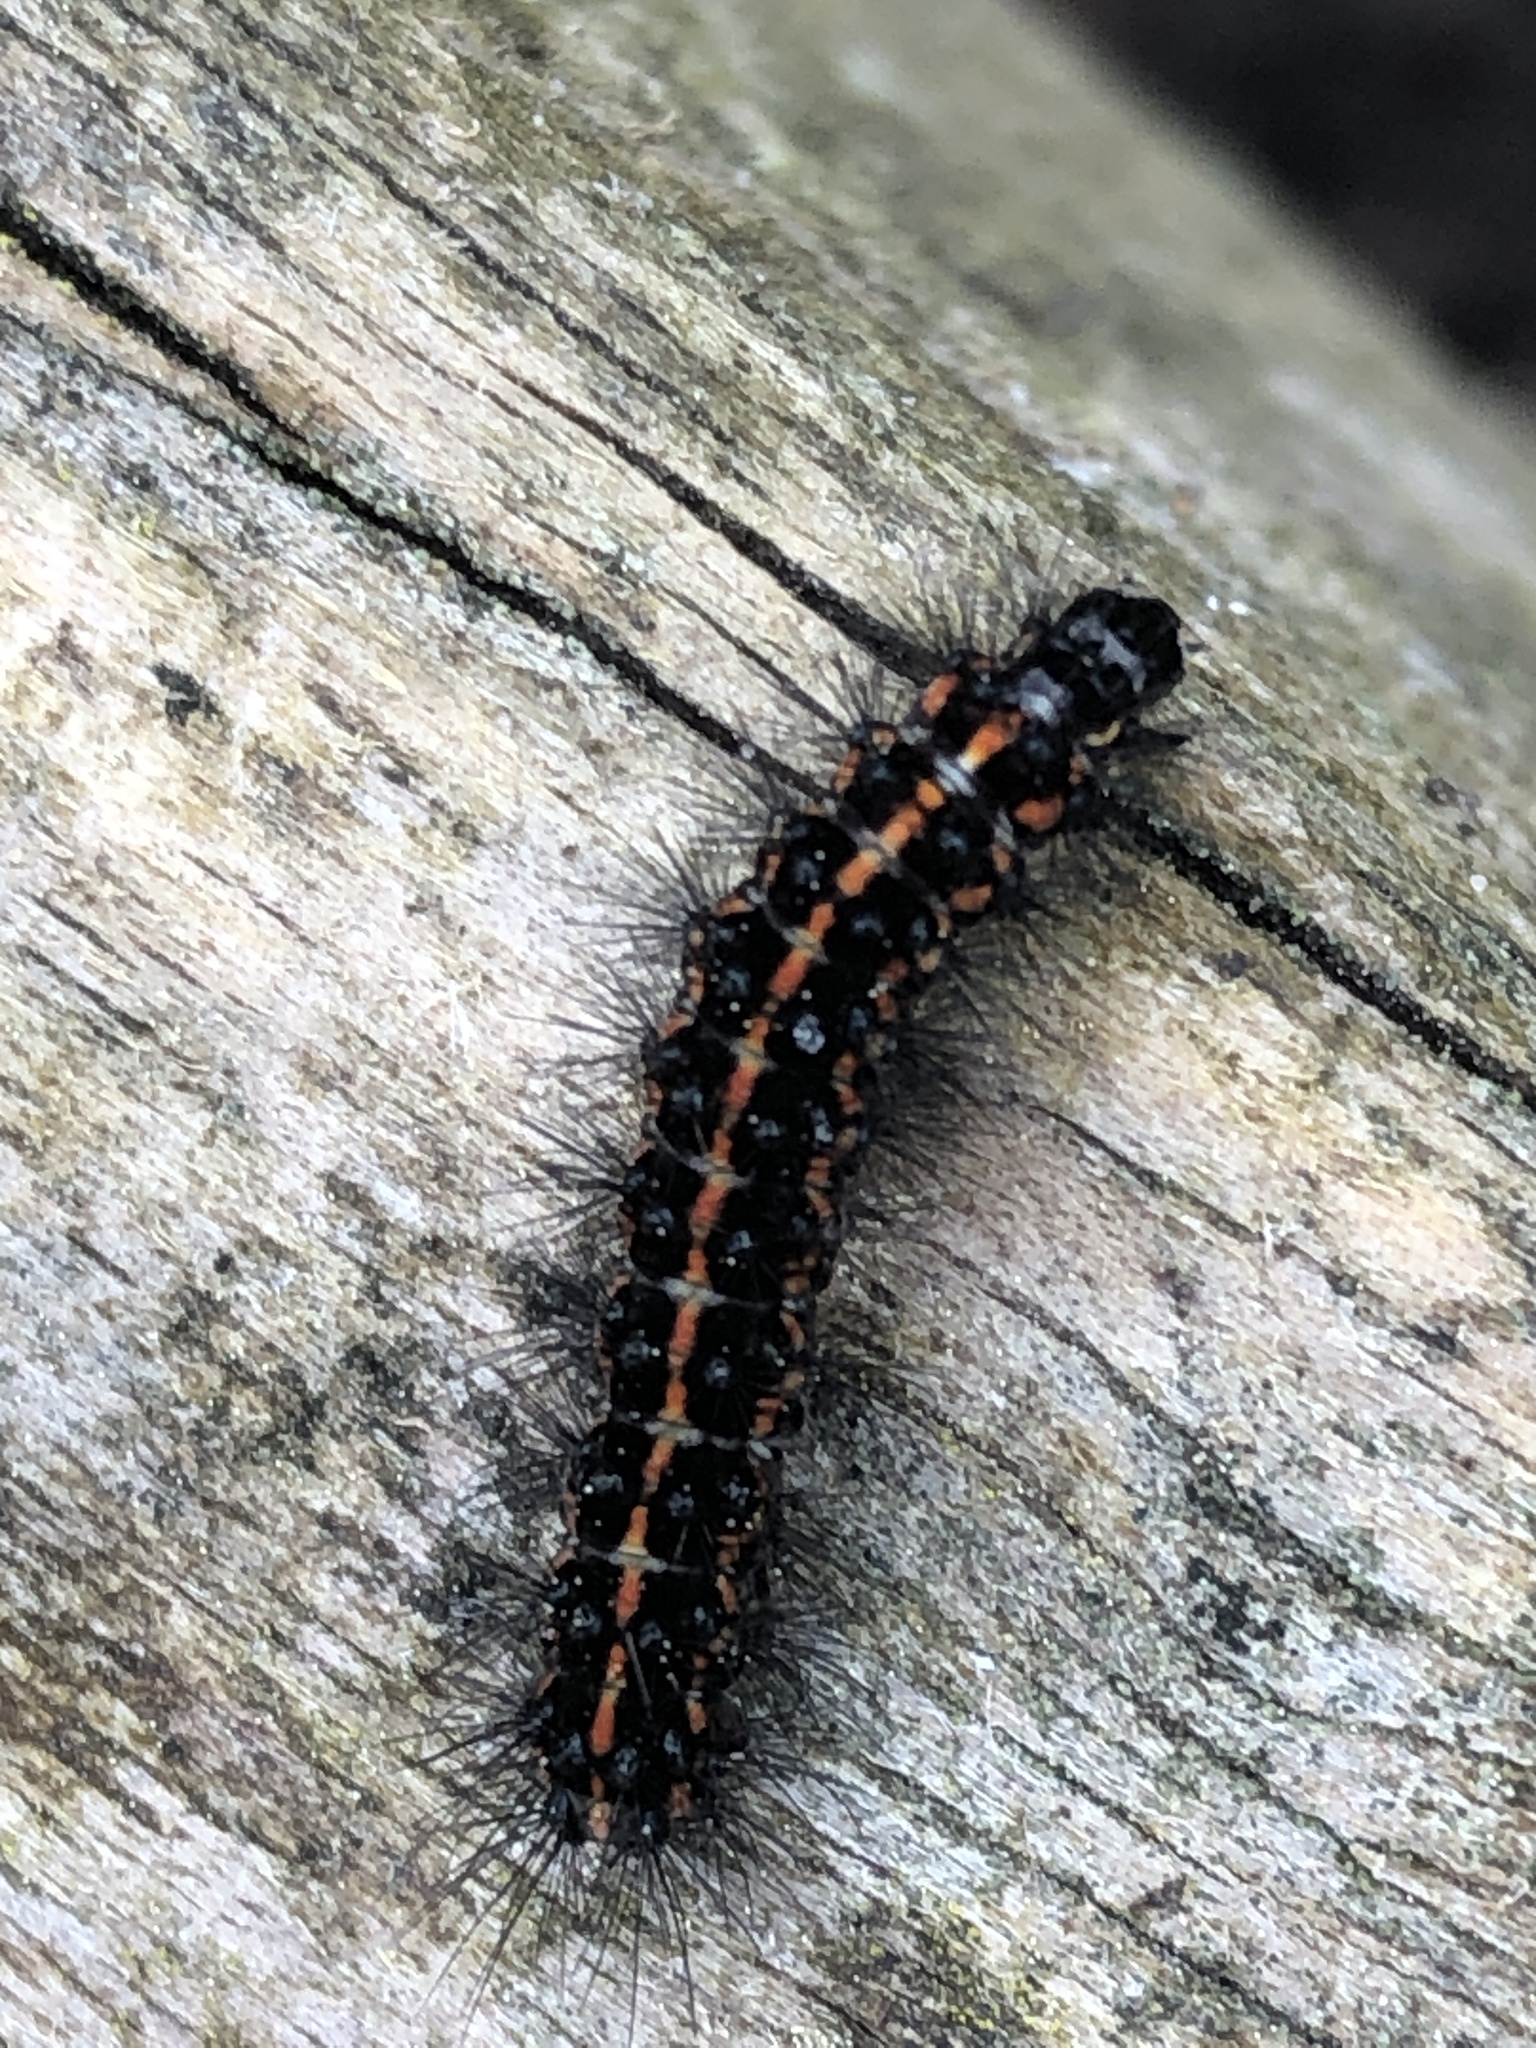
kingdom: Animalia
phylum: Arthropoda
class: Insecta
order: Lepidoptera
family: Erebidae
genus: Nyctemera
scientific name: Nyctemera annulatum
